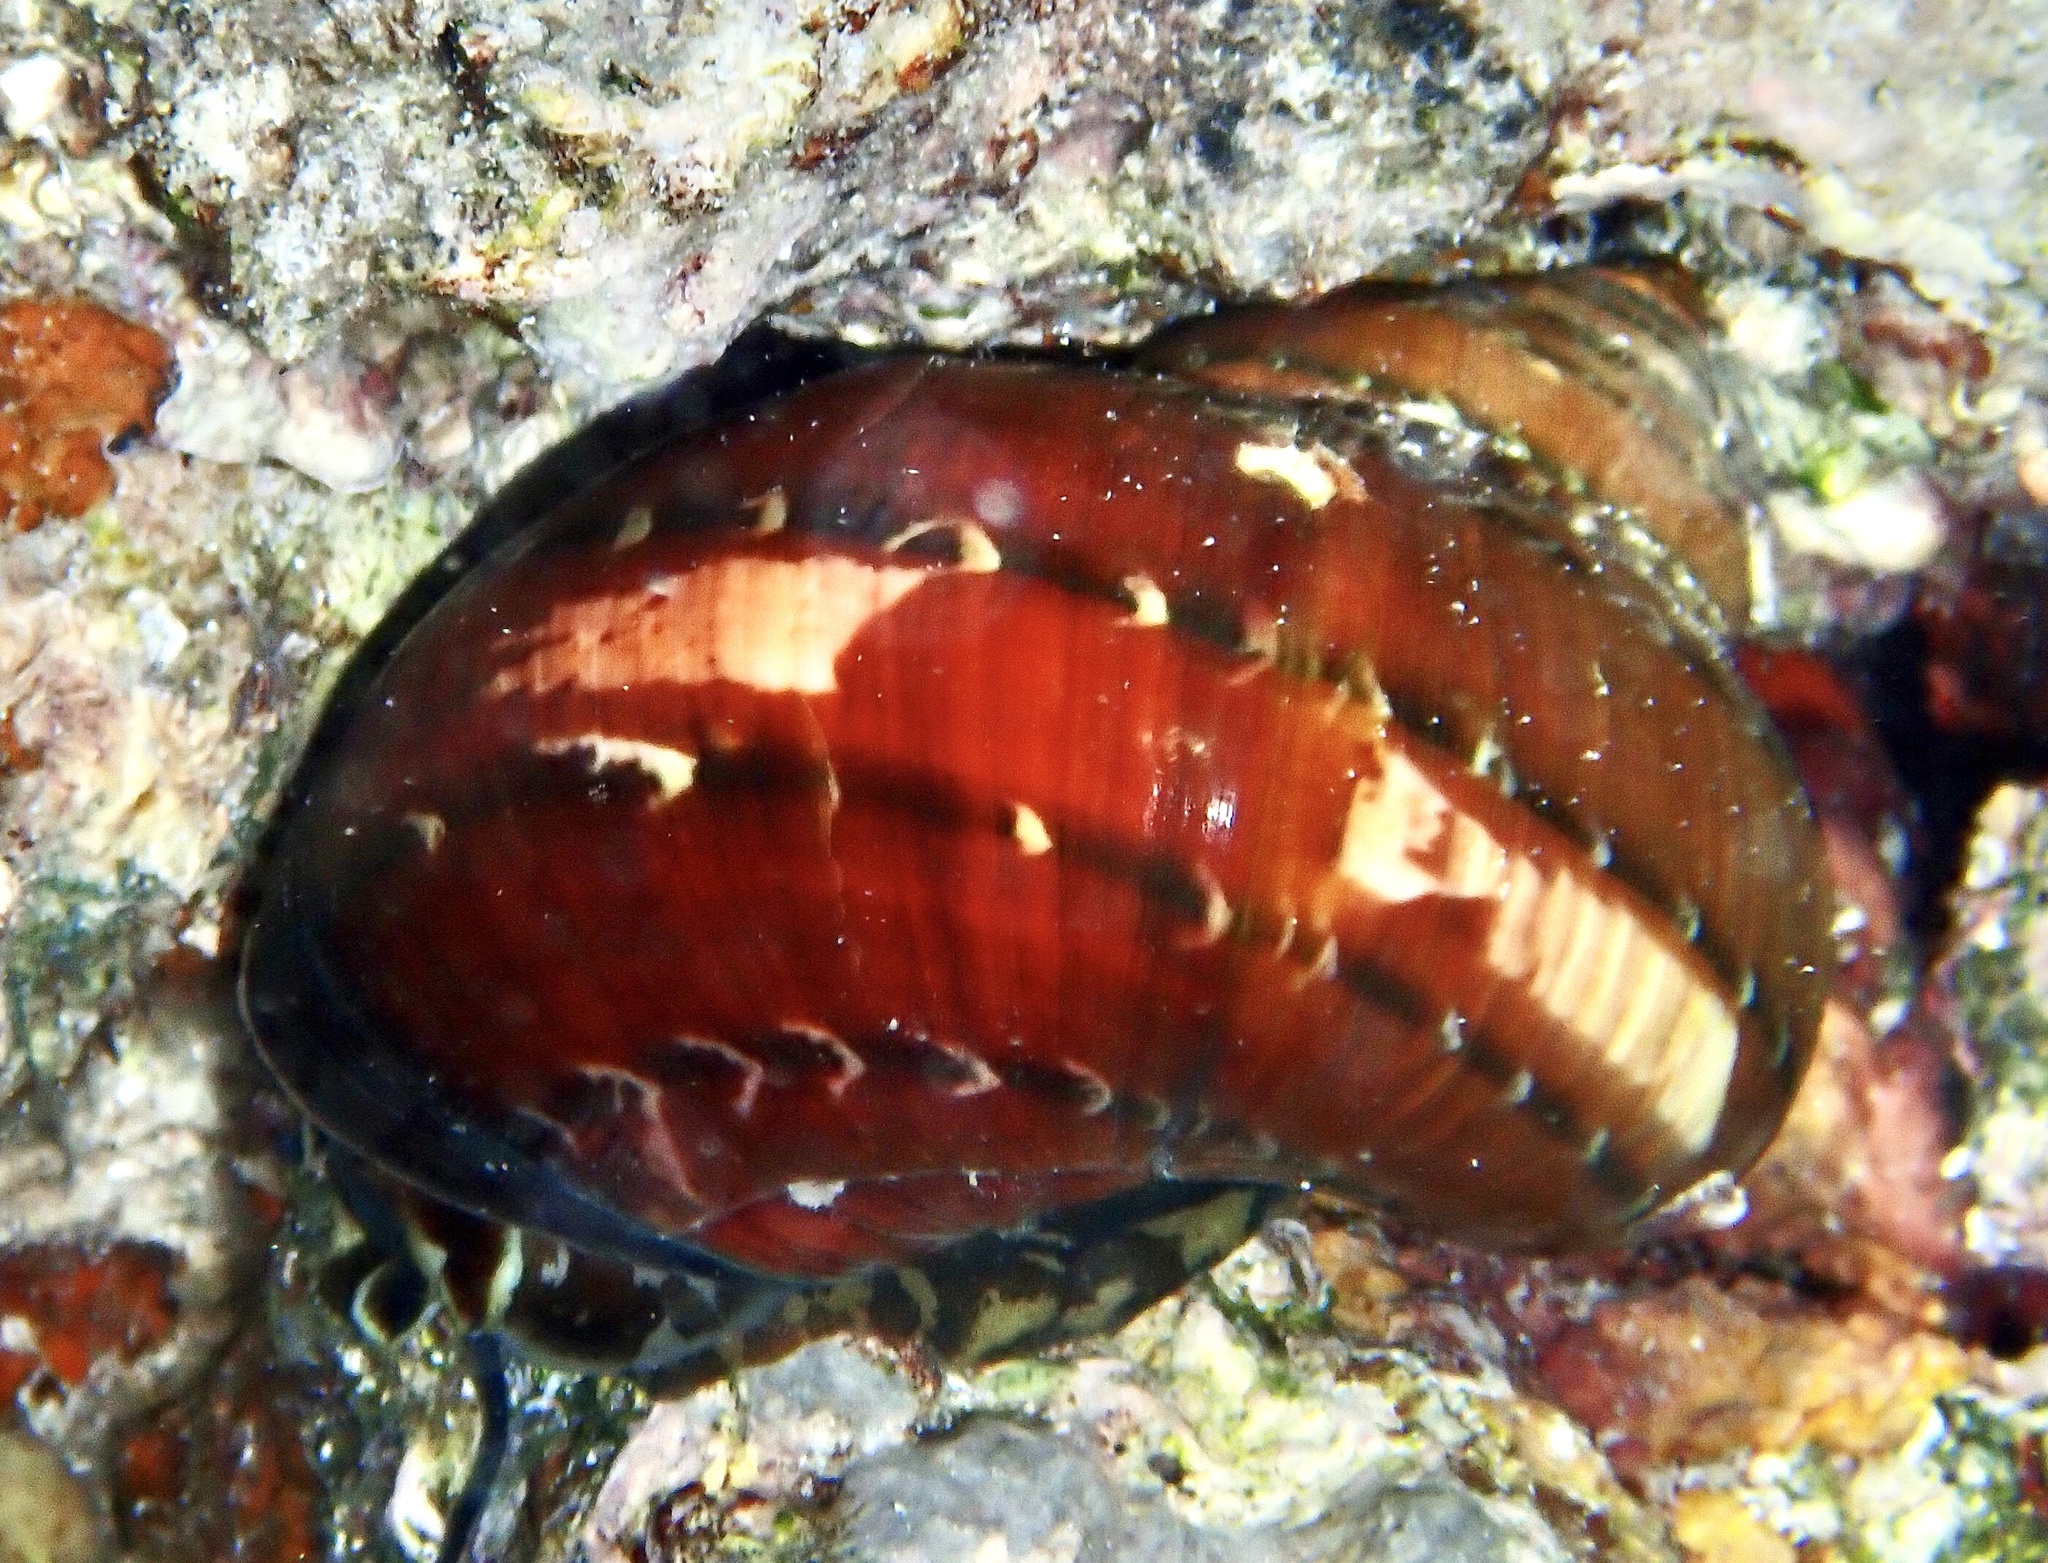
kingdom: Animalia
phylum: Mollusca
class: Gastropoda
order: Trochida
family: Turbinidae
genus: Turbo
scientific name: Turbo petholatus
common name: Cat's-eye shell
